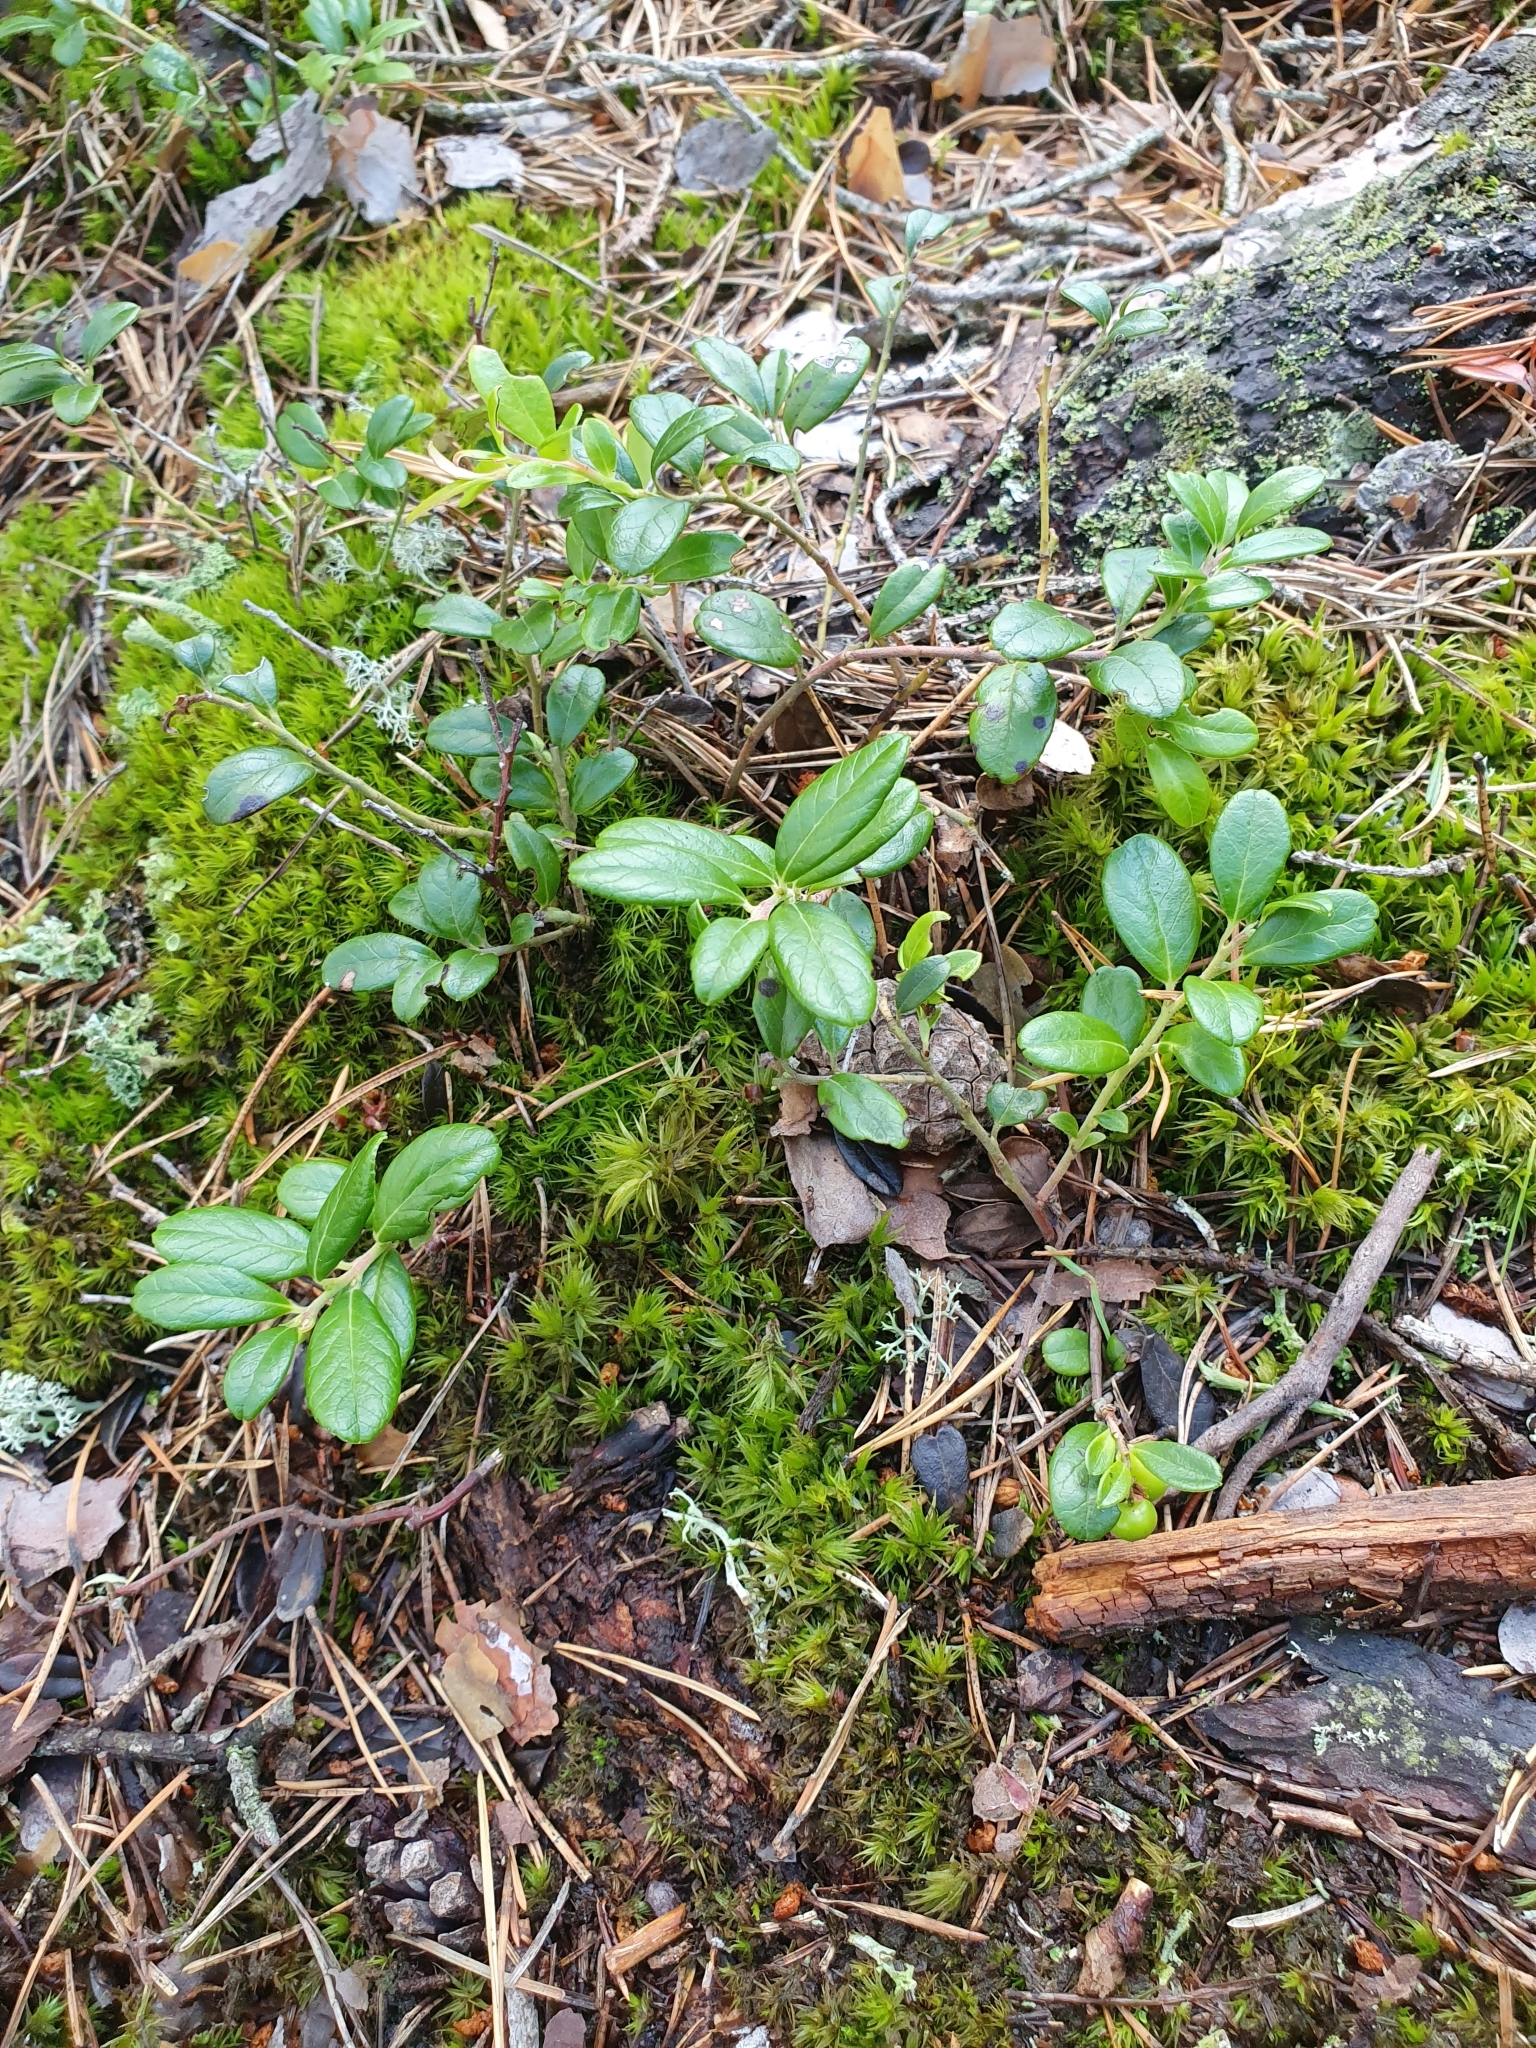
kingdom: Plantae
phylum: Tracheophyta
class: Magnoliopsida
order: Ericales
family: Ericaceae
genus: Vaccinium
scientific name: Vaccinium vitis-idaea
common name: Cowberry
